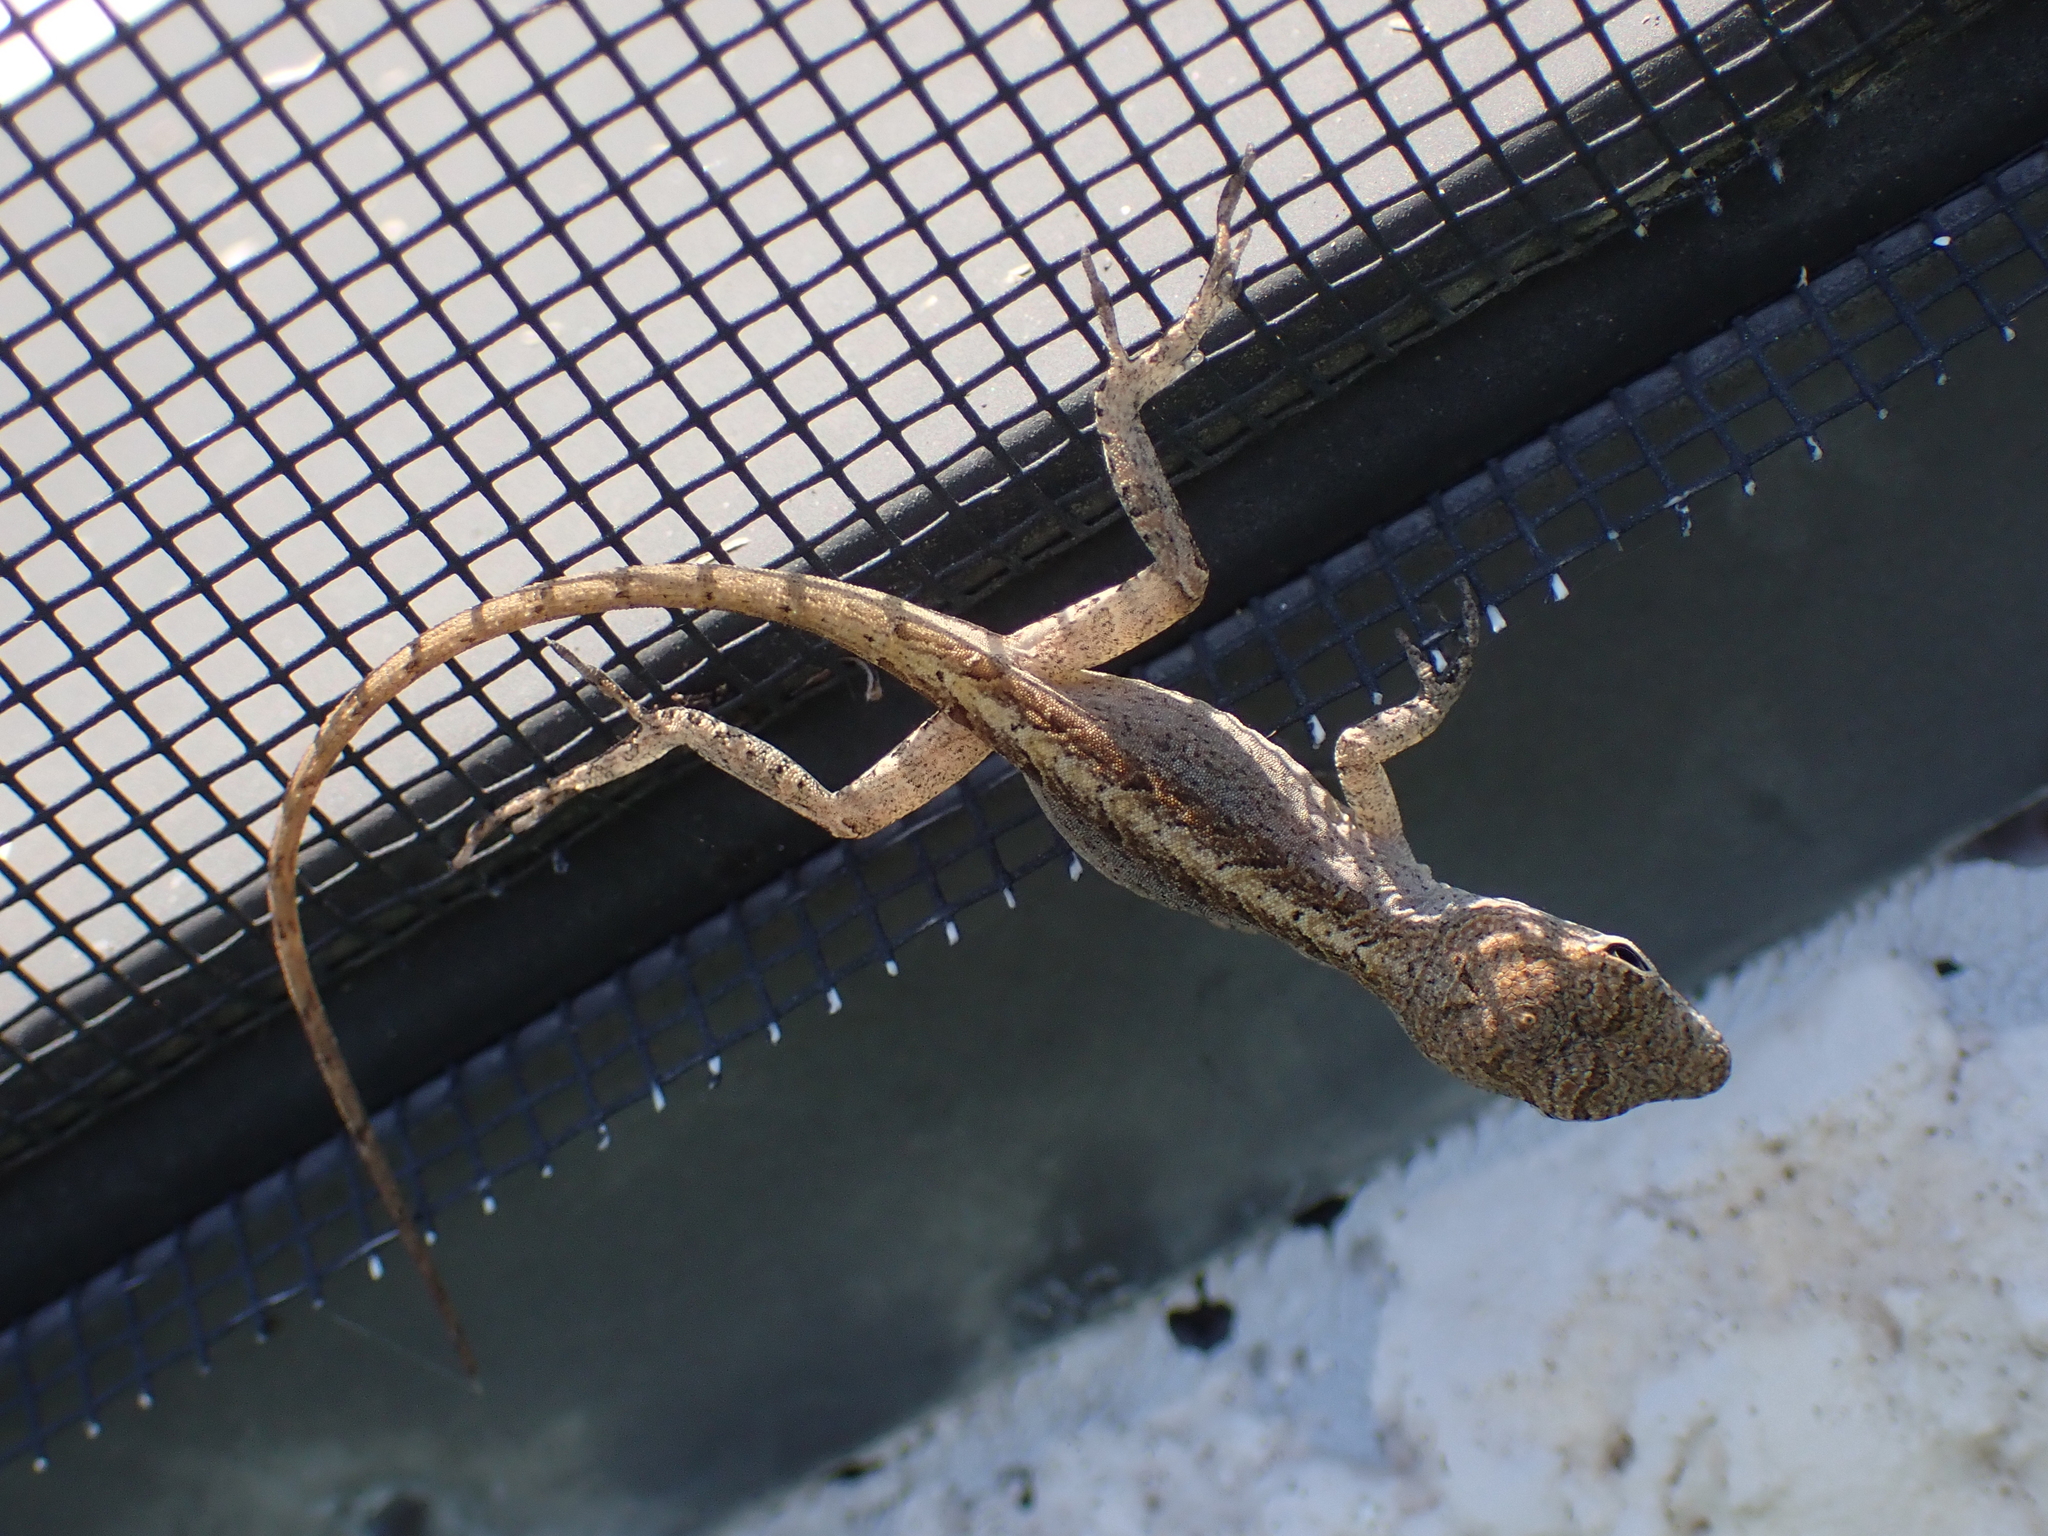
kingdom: Animalia
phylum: Chordata
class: Squamata
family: Dactyloidae
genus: Anolis
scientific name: Anolis sagrei
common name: Brown anole
